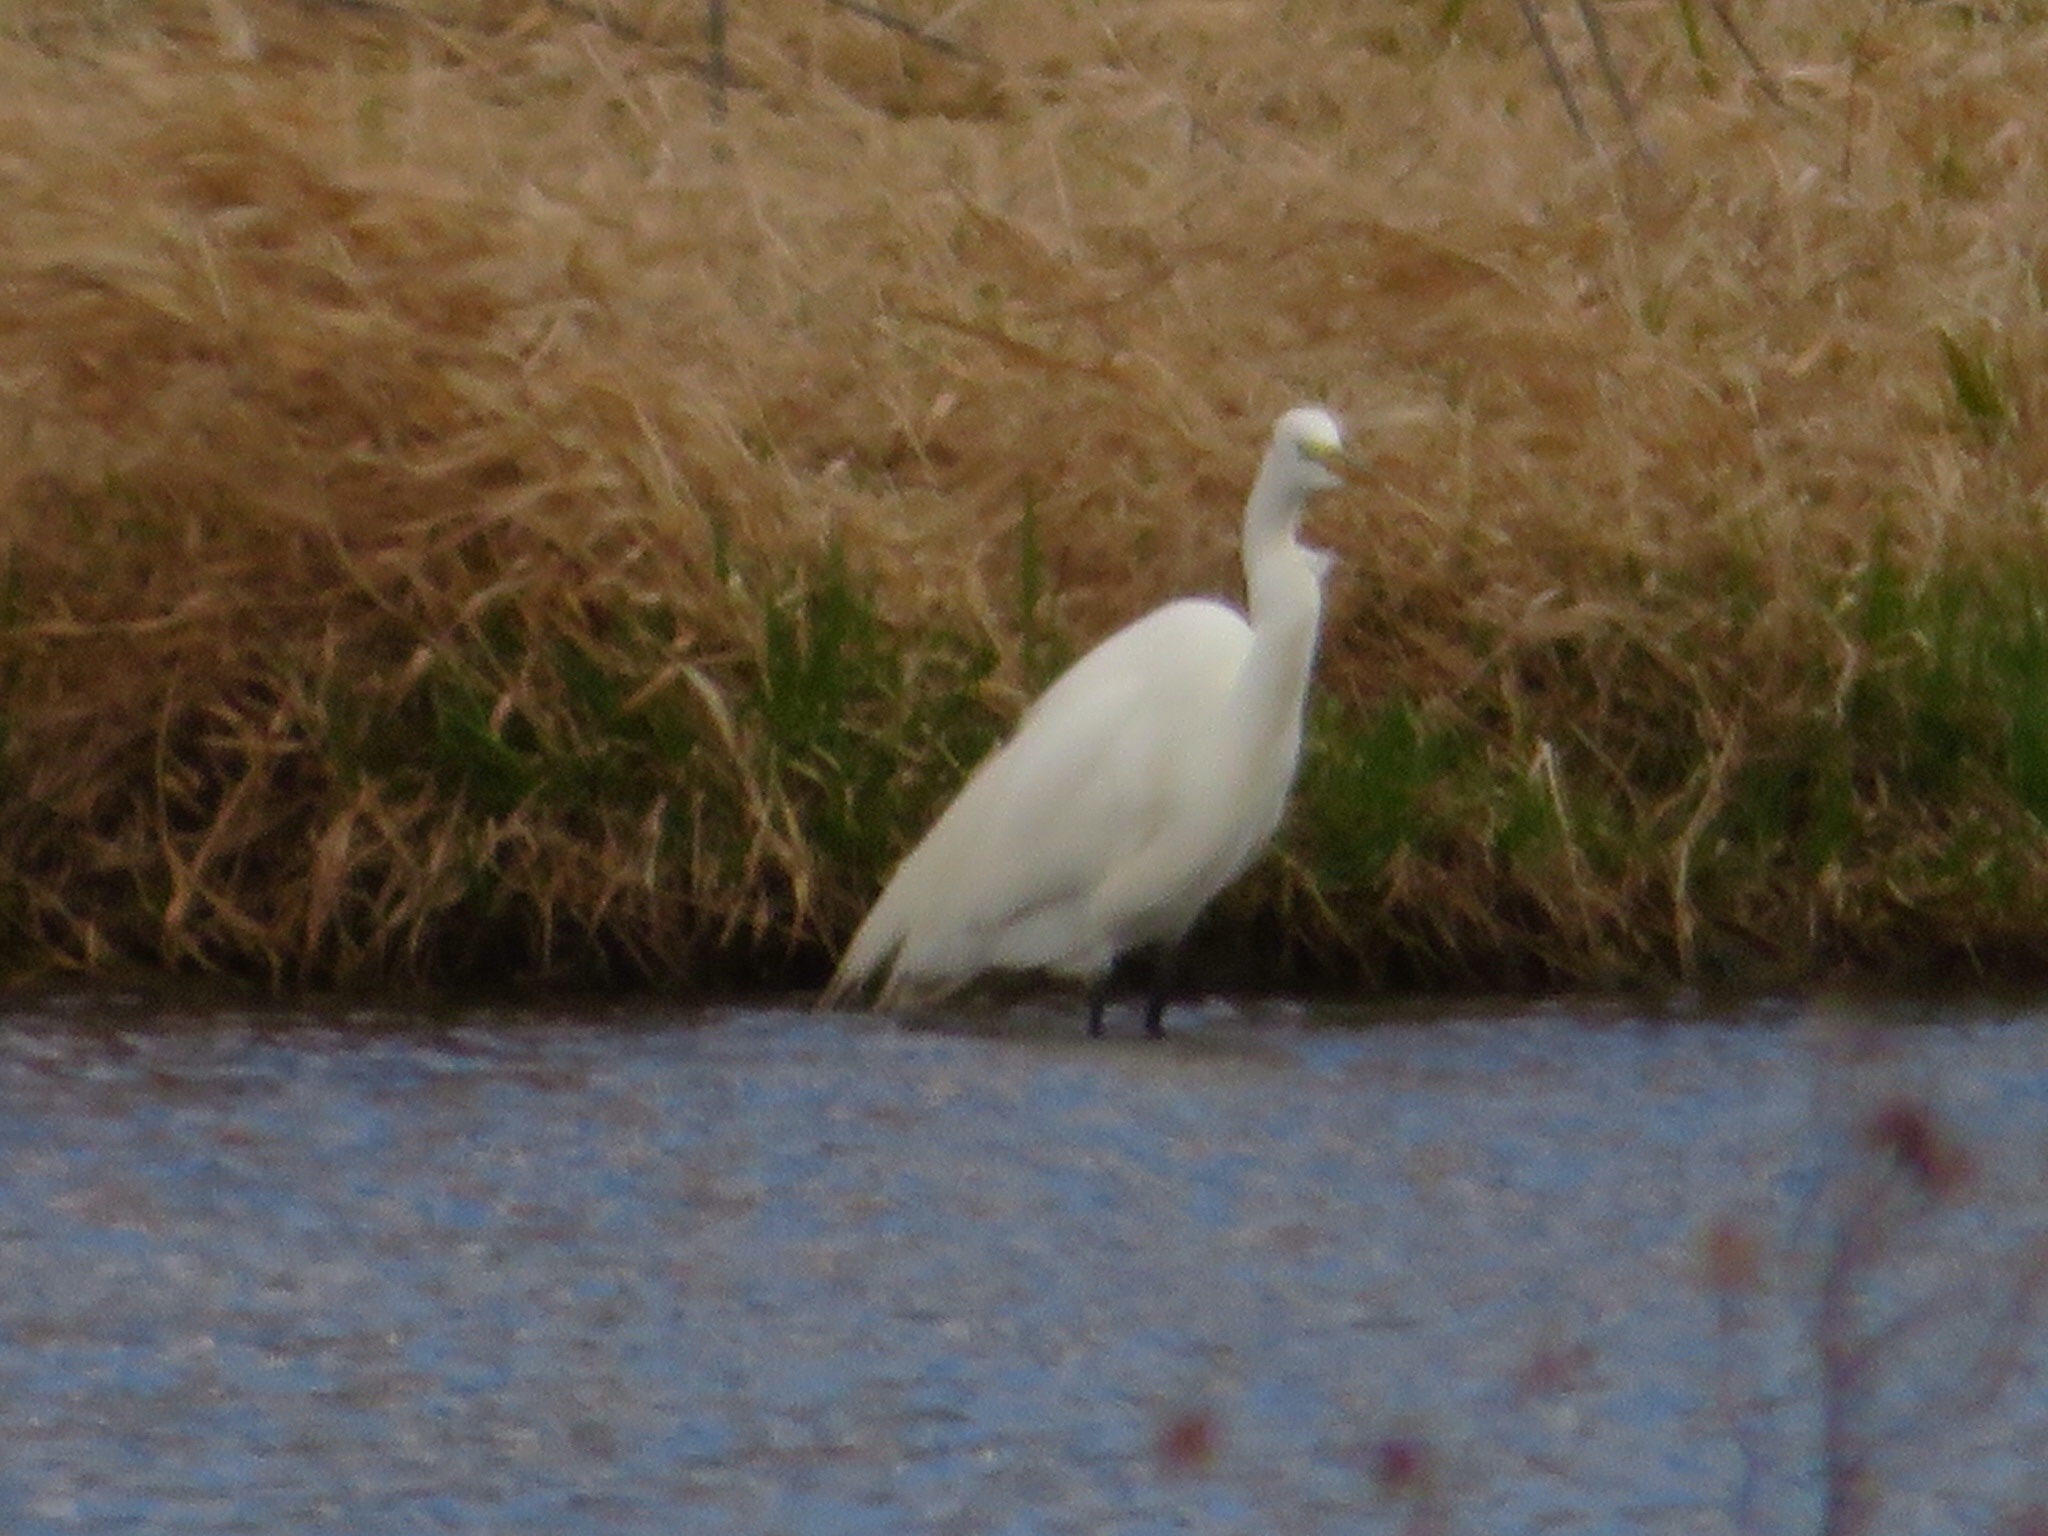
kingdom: Animalia
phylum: Chordata
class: Aves
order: Pelecaniformes
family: Ardeidae
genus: Ardea
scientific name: Ardea alba
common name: Great egret
